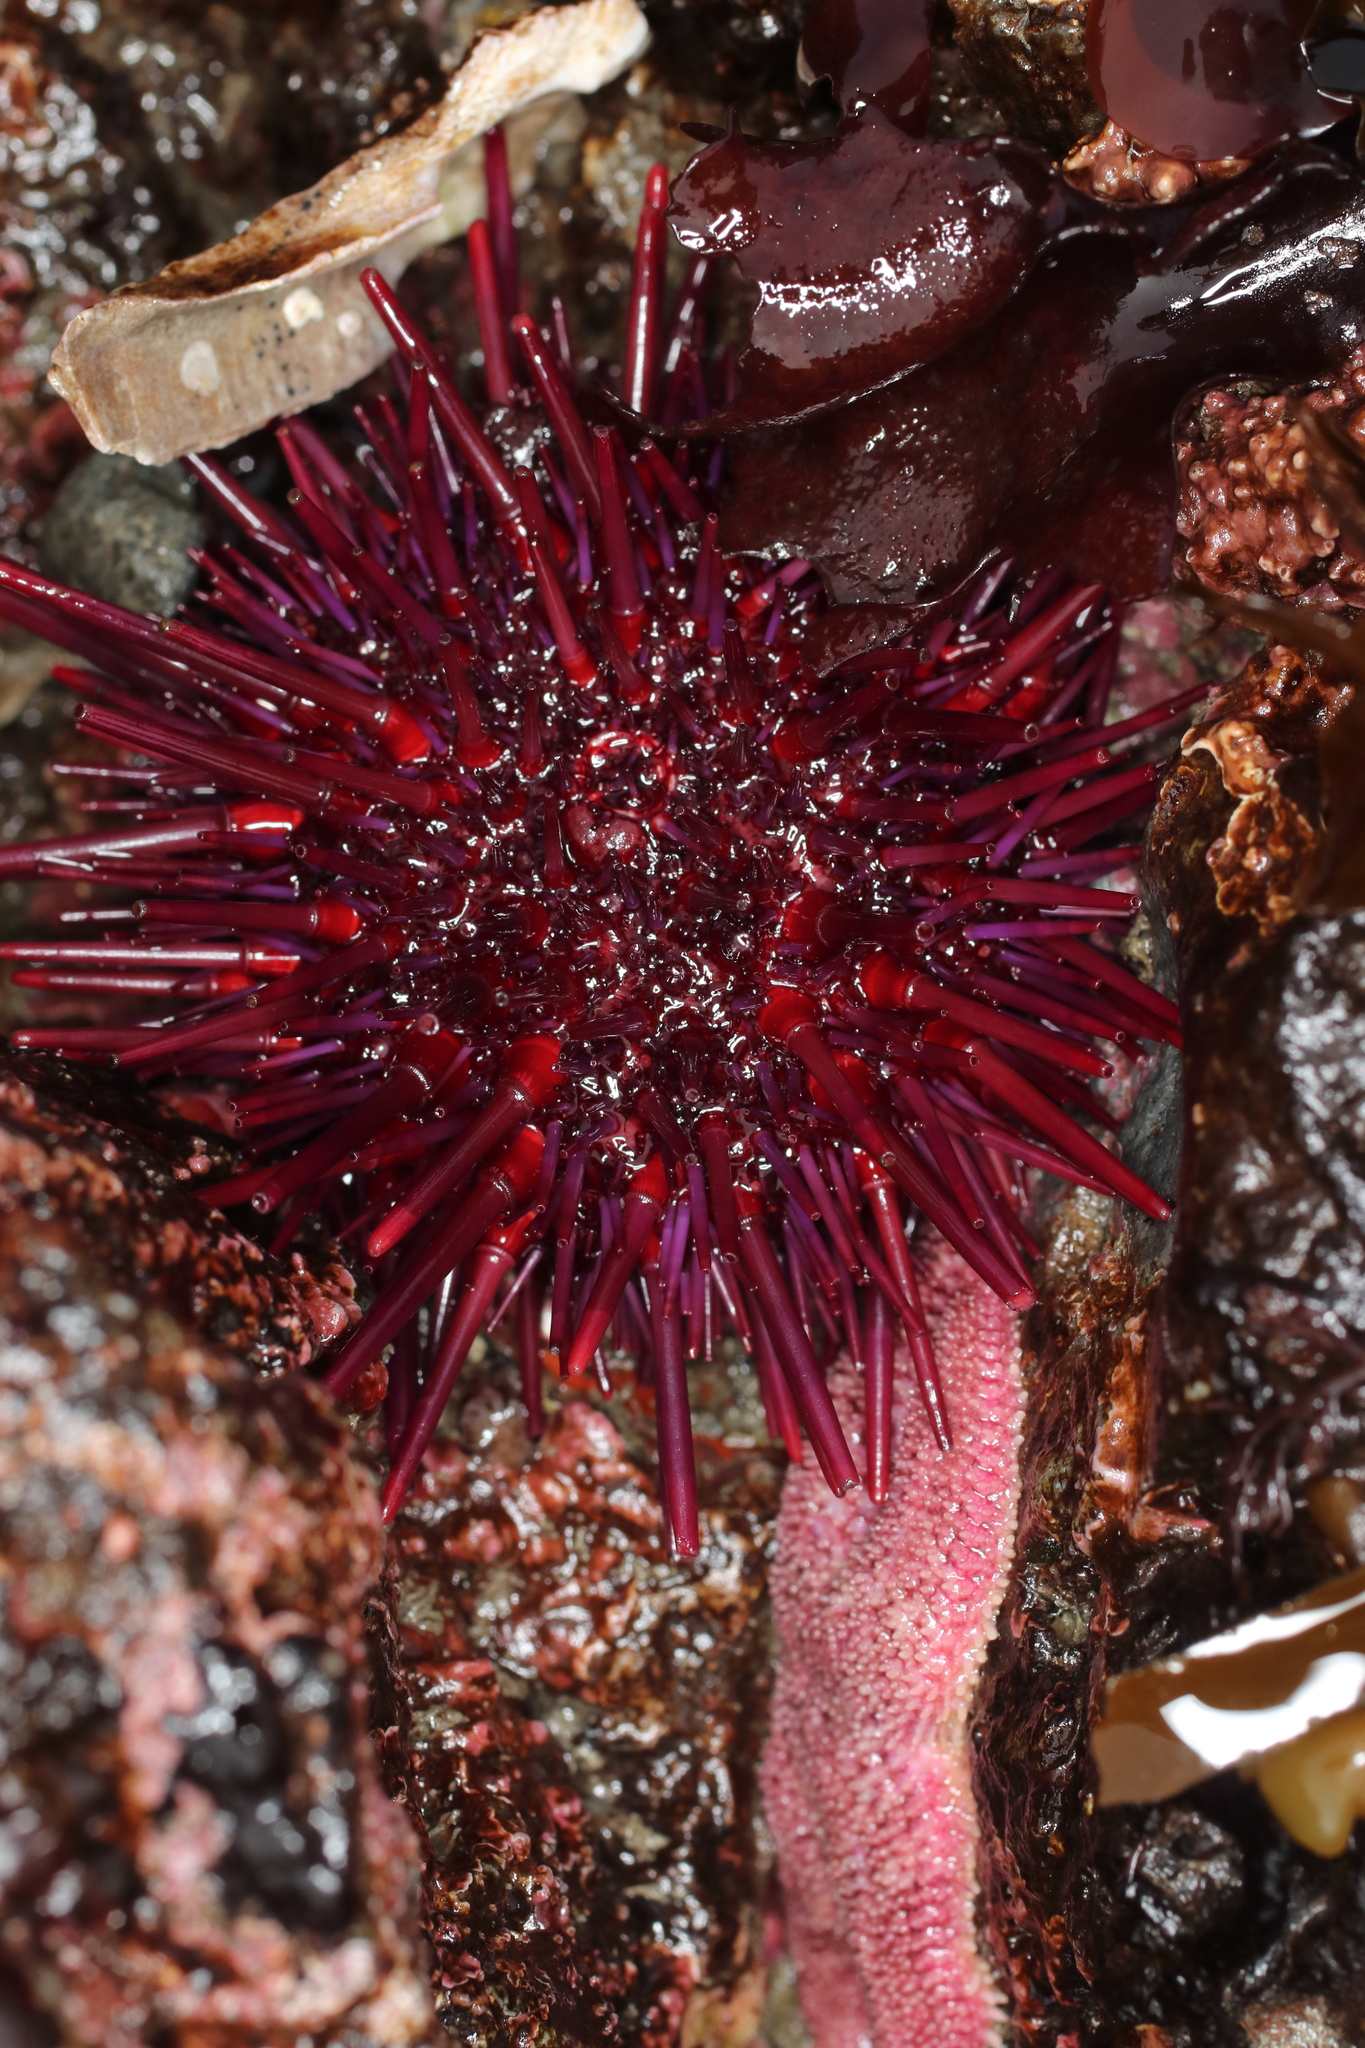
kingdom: Animalia
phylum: Echinodermata
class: Echinoidea
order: Camarodonta
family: Strongylocentrotidae
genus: Mesocentrotus
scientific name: Mesocentrotus franciscanus
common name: Red sea urchin
